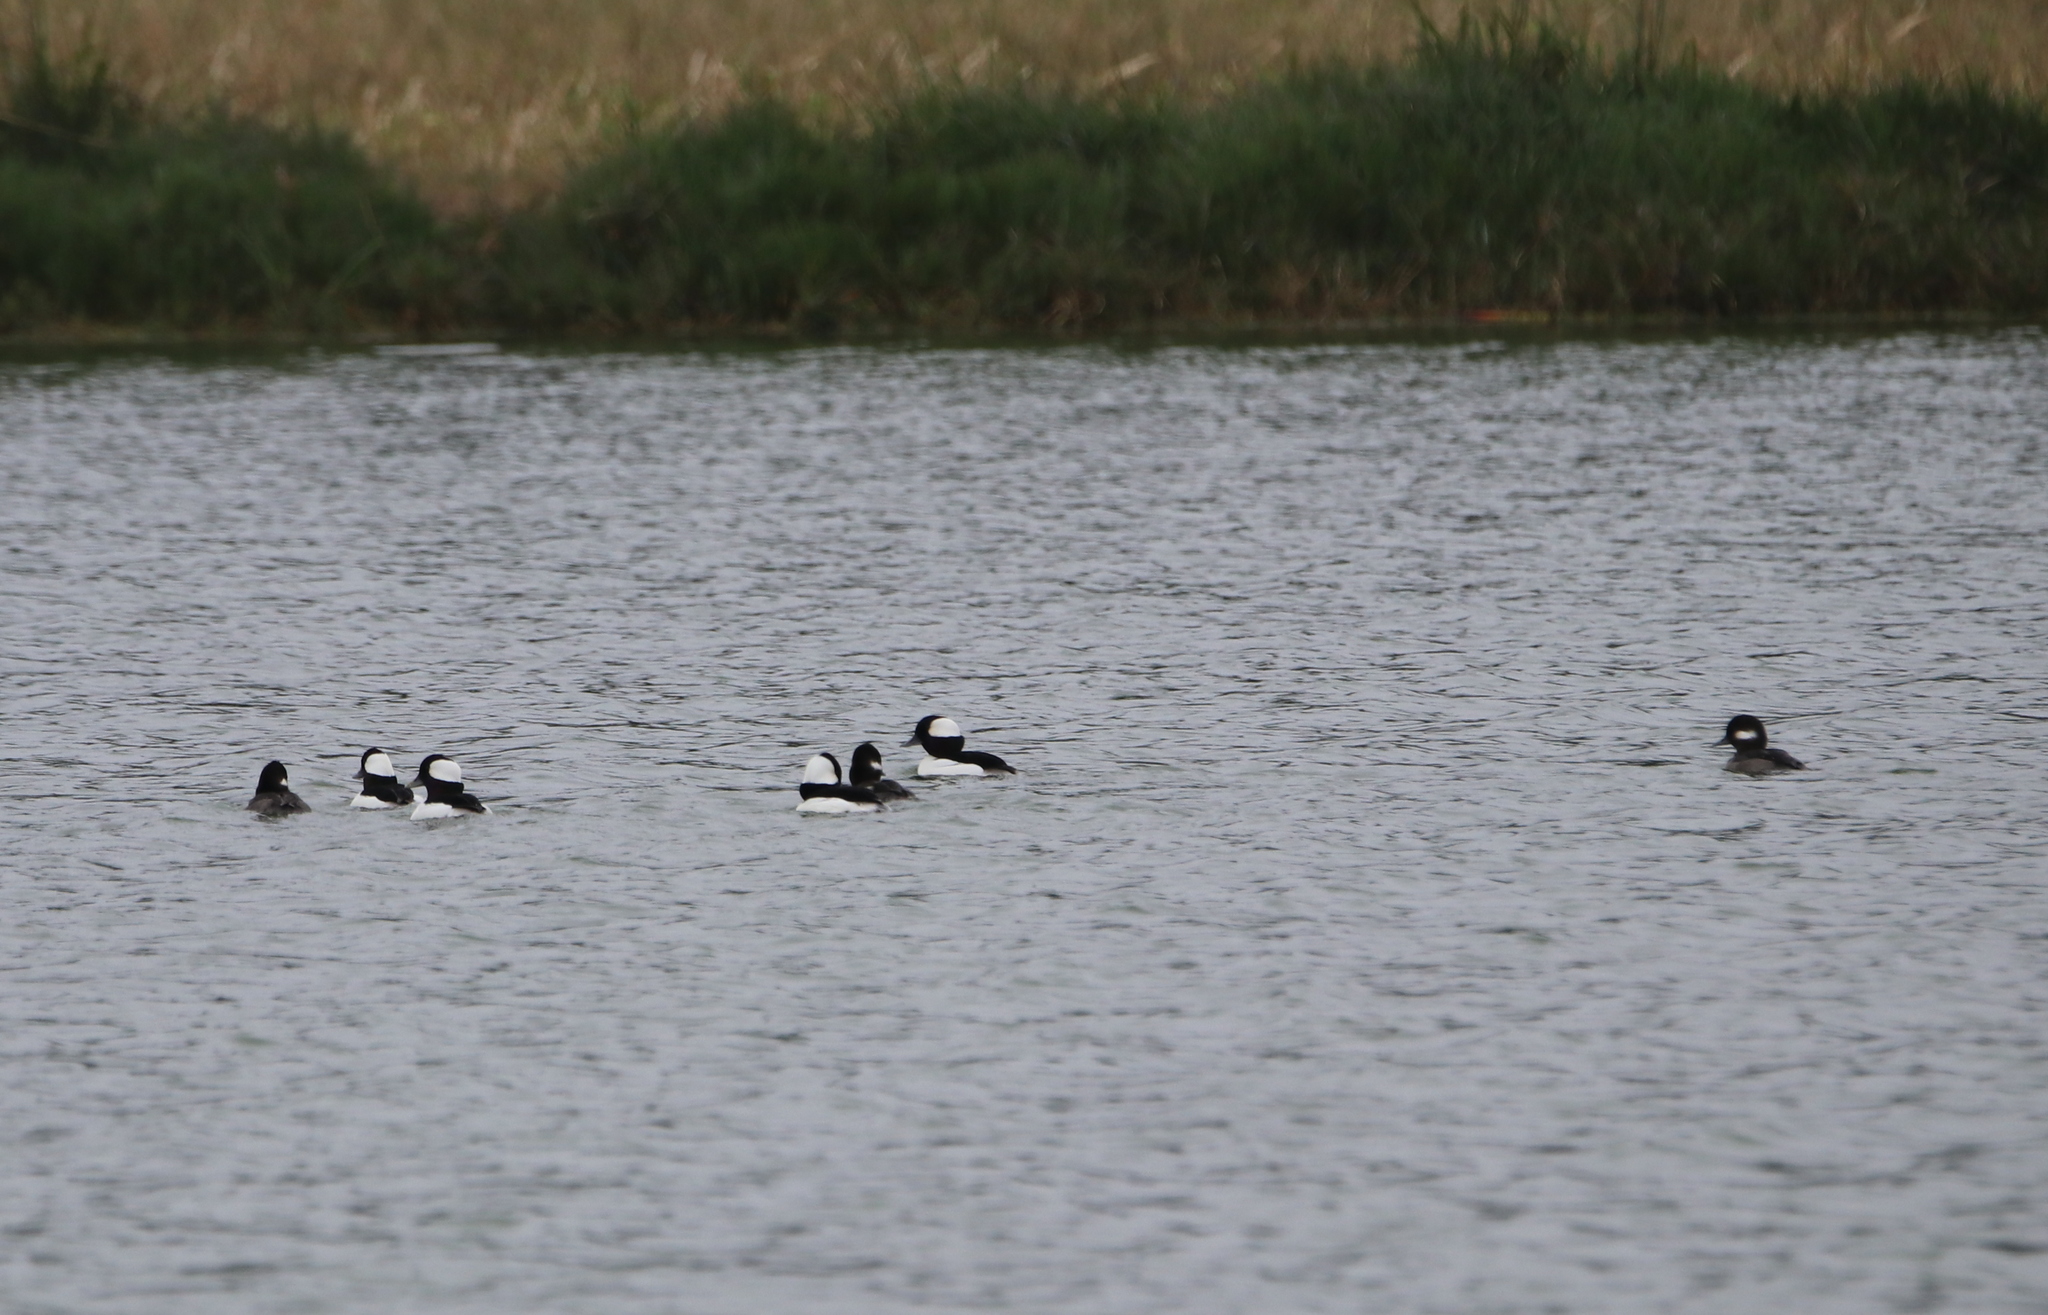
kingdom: Animalia
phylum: Chordata
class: Aves
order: Anseriformes
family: Anatidae
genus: Bucephala
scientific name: Bucephala albeola
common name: Bufflehead
